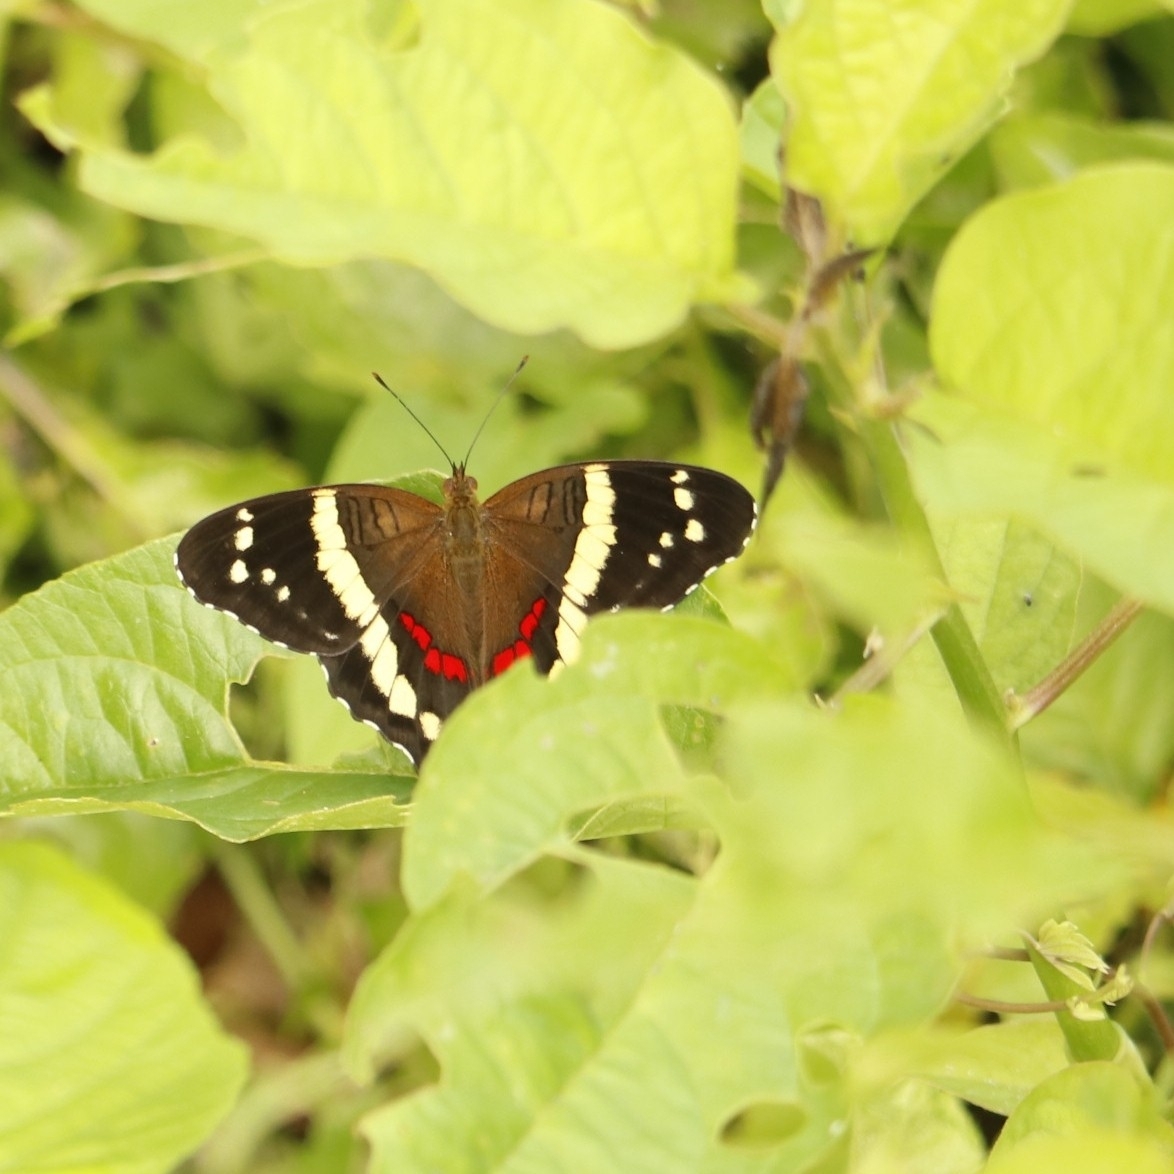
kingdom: Animalia
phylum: Arthropoda
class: Insecta
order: Lepidoptera
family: Nymphalidae
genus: Anartia
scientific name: Anartia fatima
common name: Banded peacock
